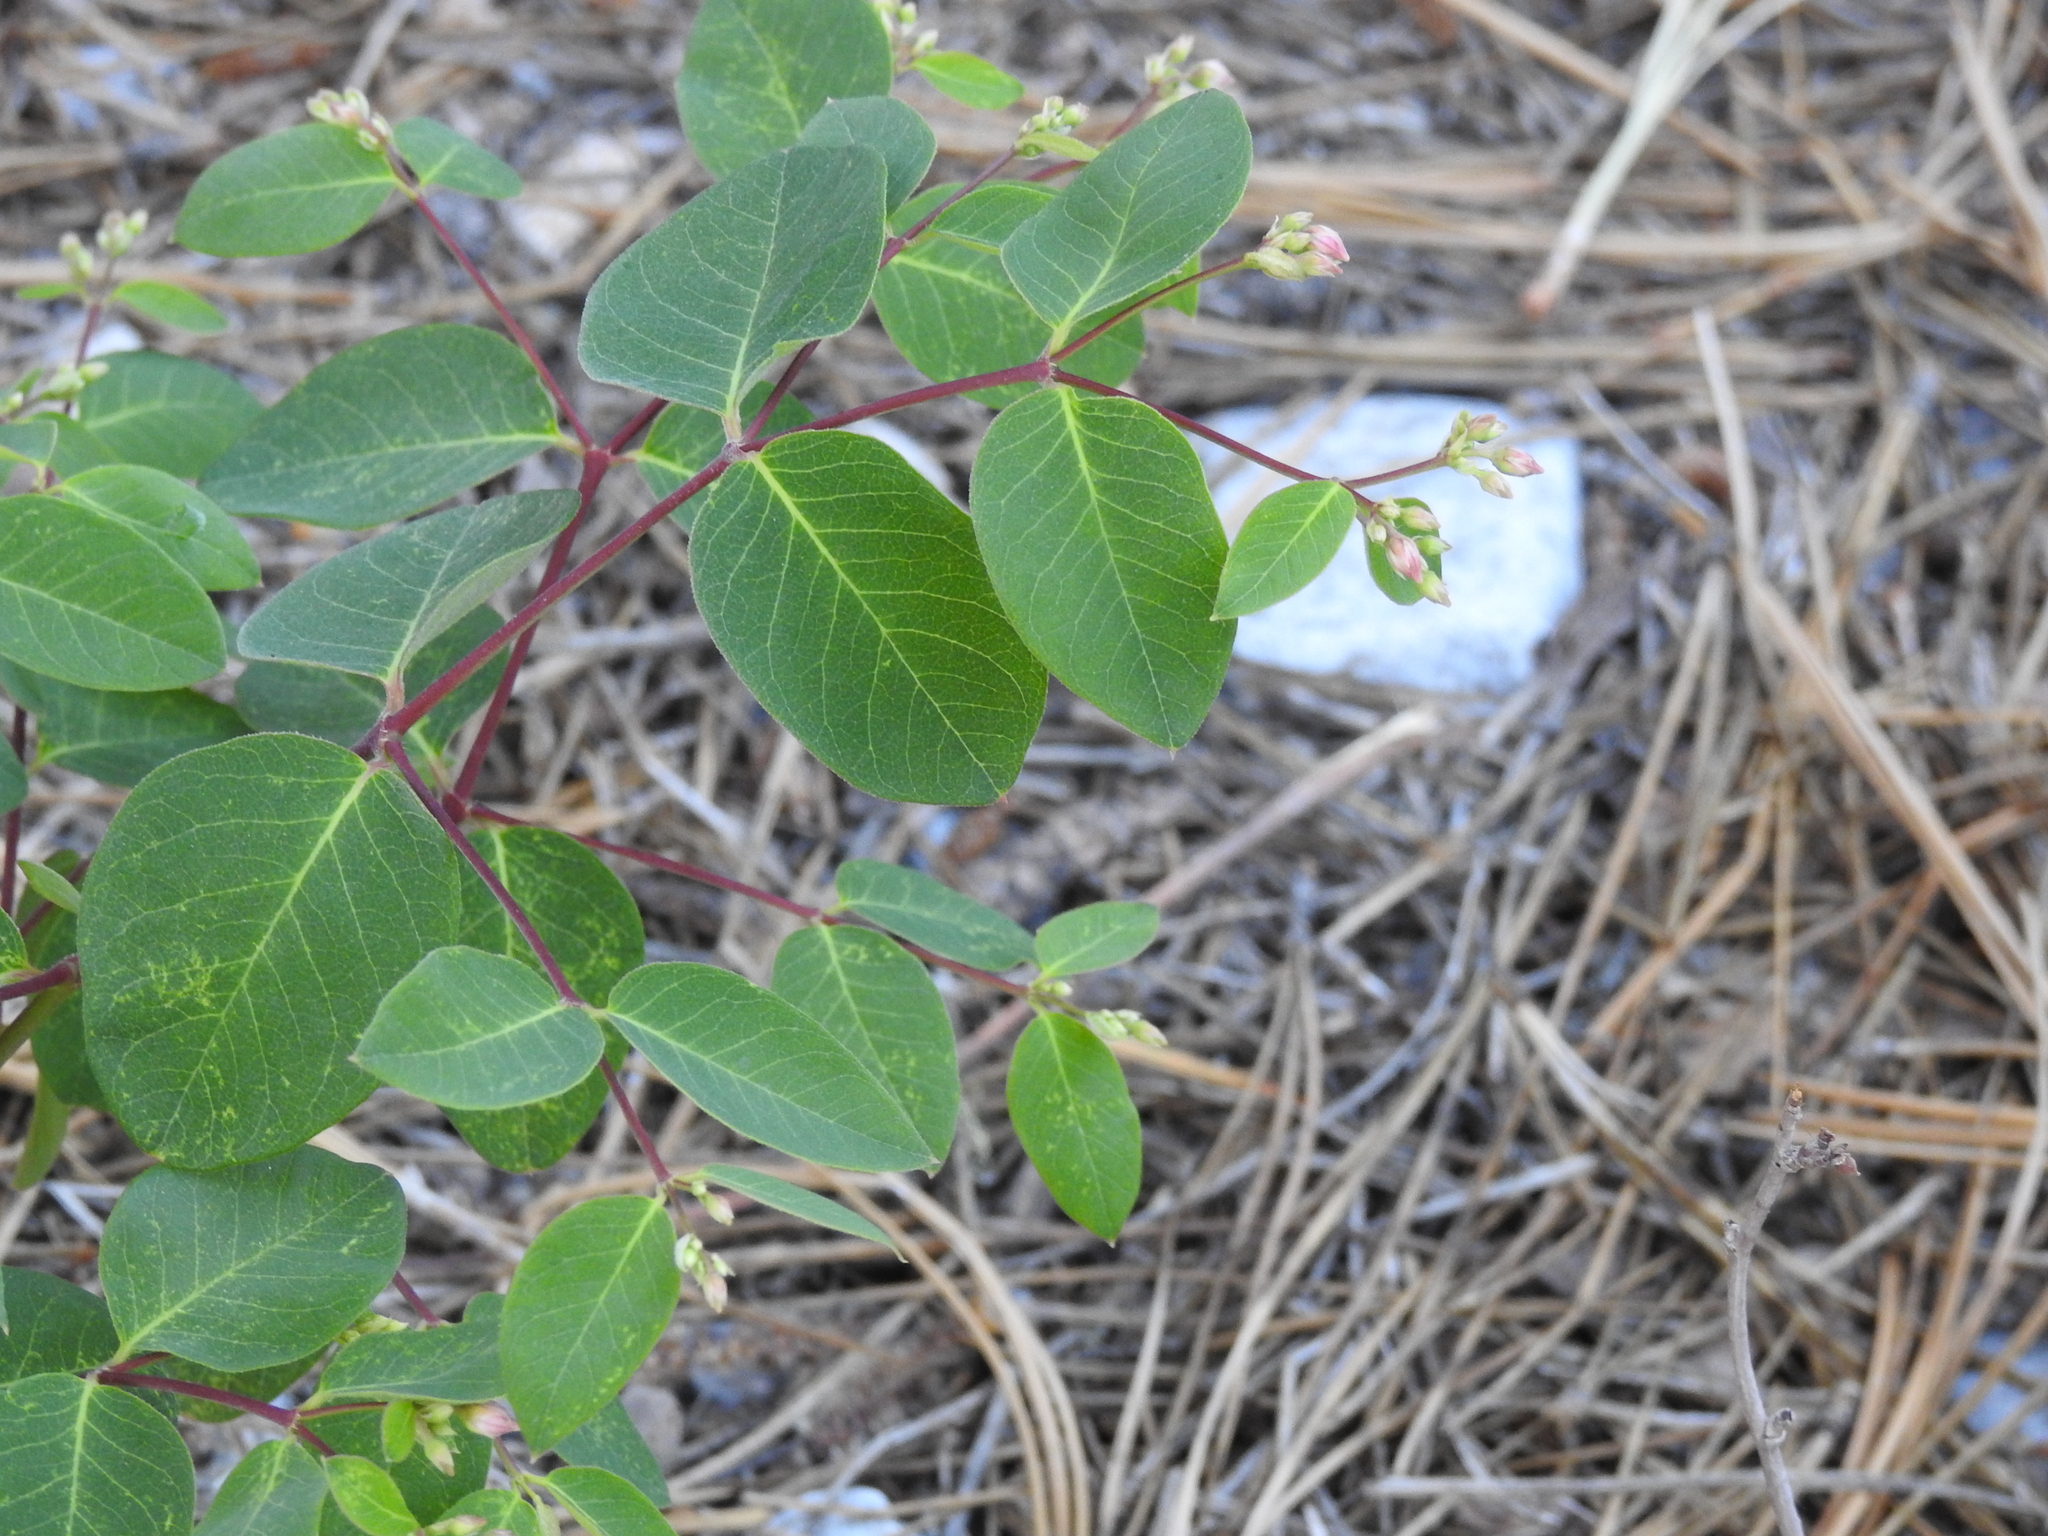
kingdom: Plantae
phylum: Tracheophyta
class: Magnoliopsida
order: Gentianales
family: Apocynaceae
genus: Apocynum
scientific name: Apocynum androsaemifolium
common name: Spreading dogbane
